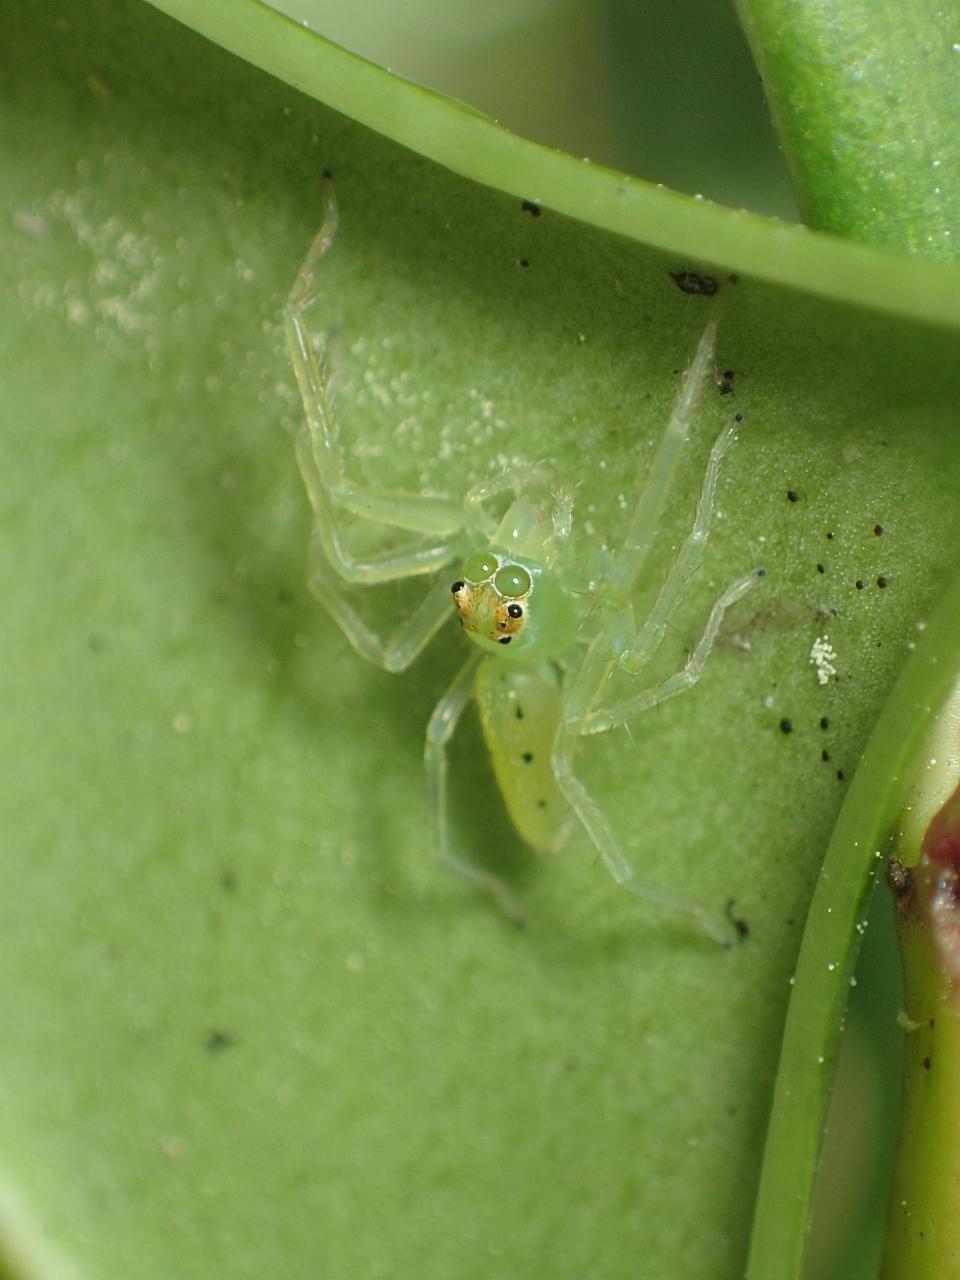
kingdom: Animalia
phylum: Arthropoda
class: Arachnida
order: Araneae
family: Salticidae
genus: Lyssomanes
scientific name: Lyssomanes viridis
